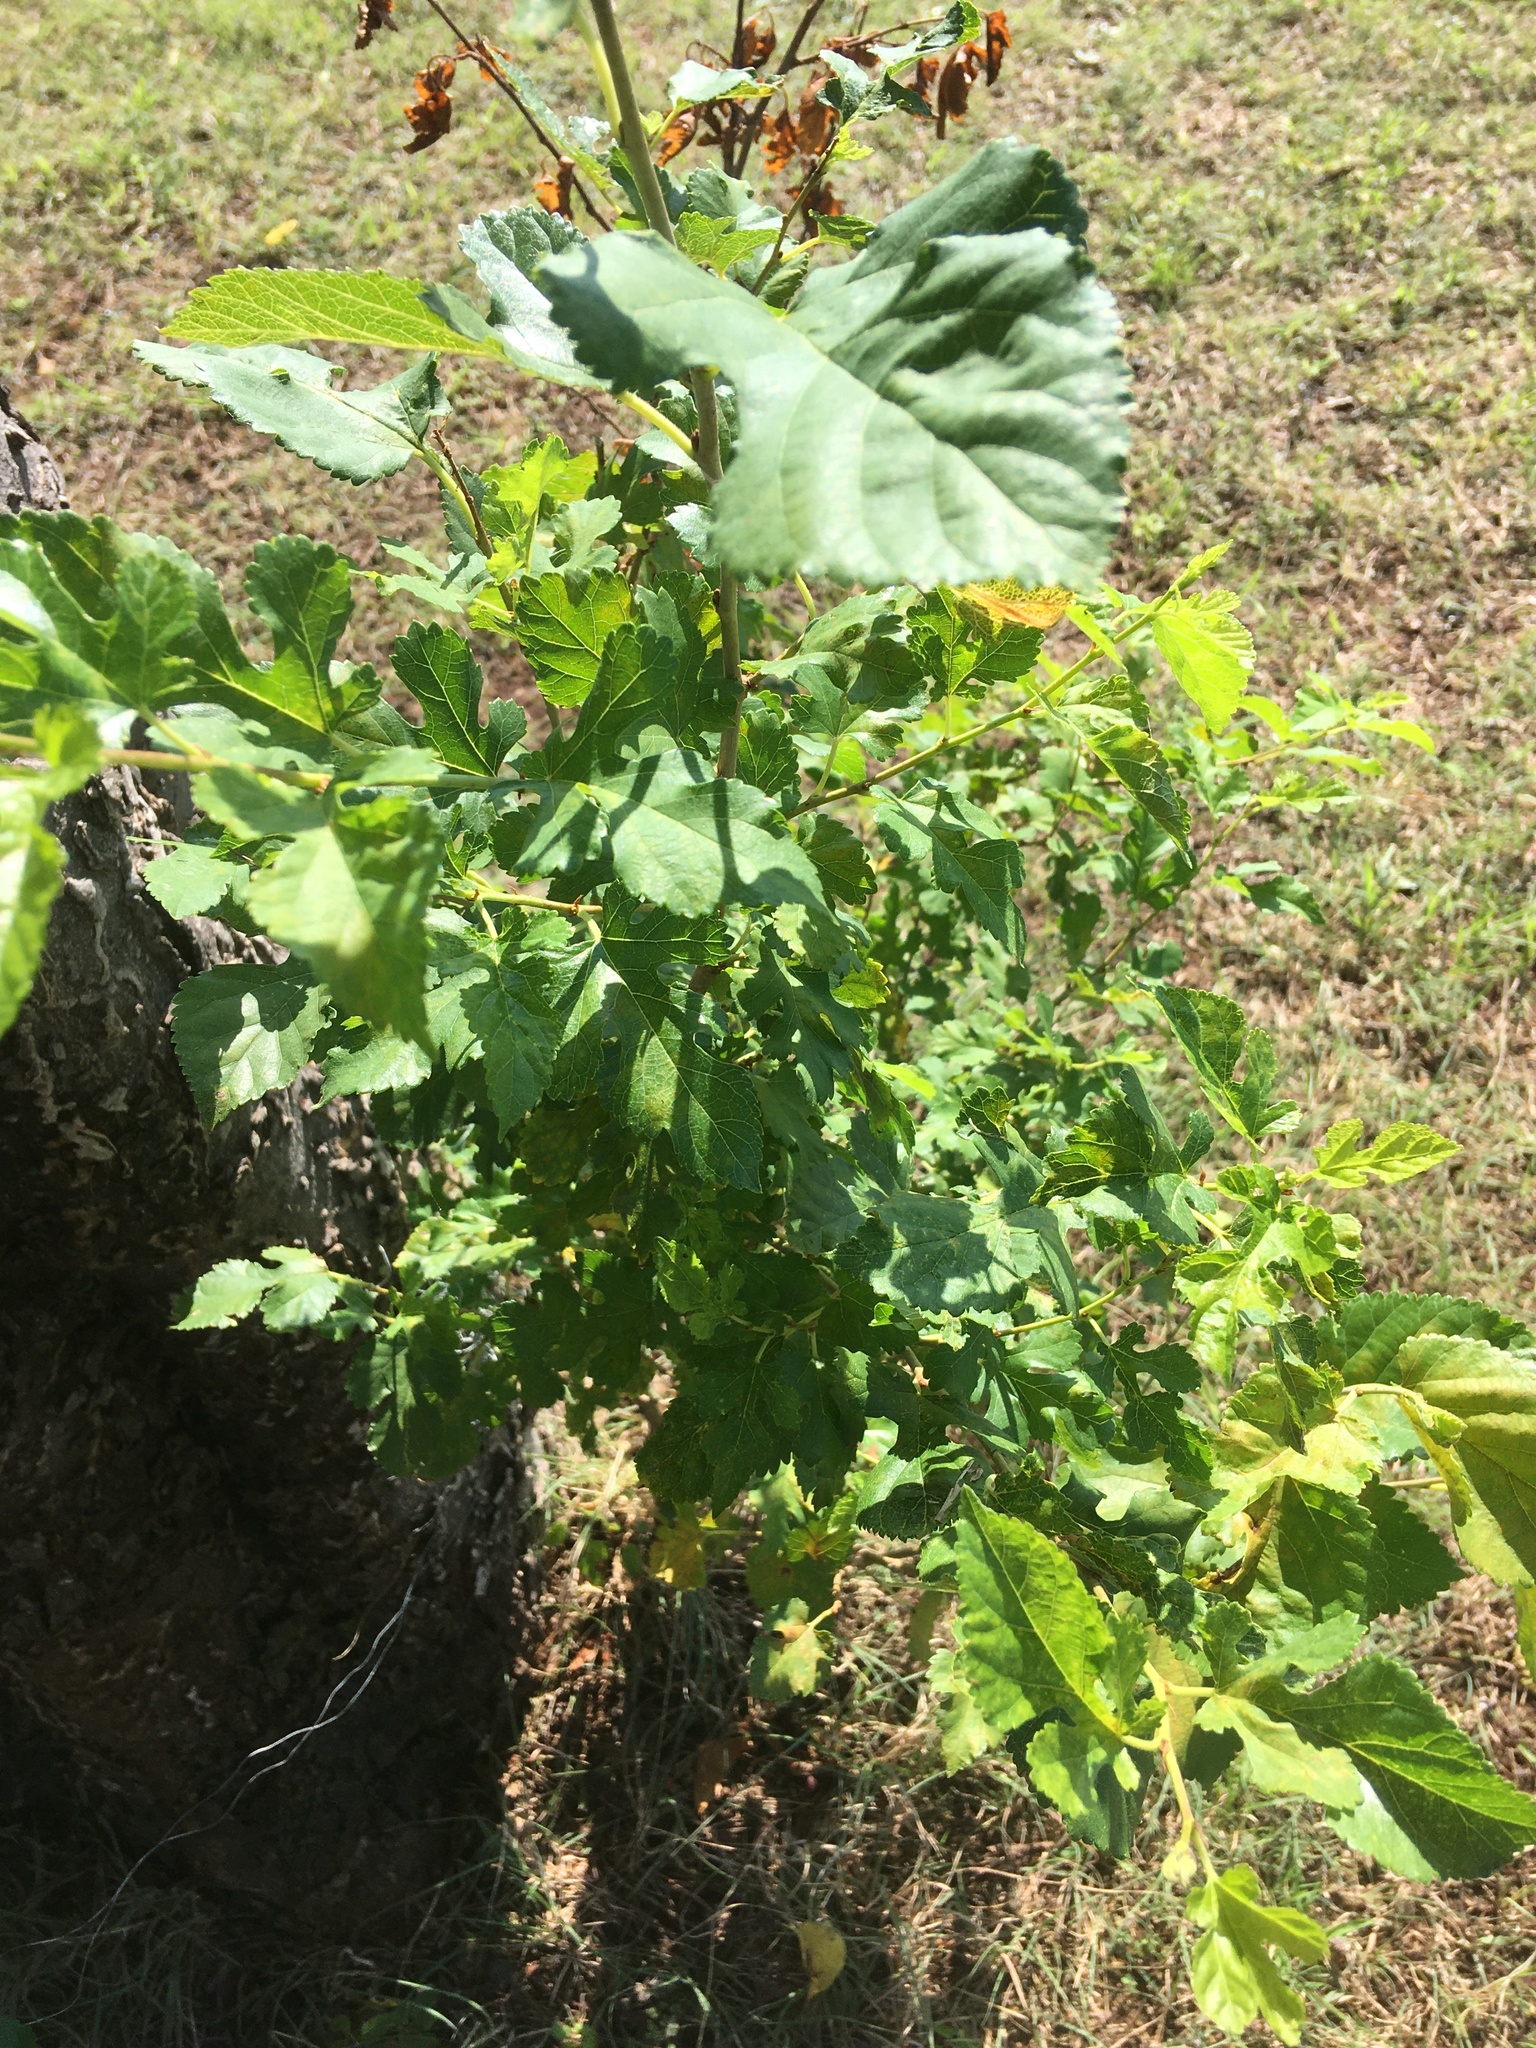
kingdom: Plantae
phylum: Tracheophyta
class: Magnoliopsida
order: Rosales
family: Moraceae
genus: Morus
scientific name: Morus alba
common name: White mulberry
